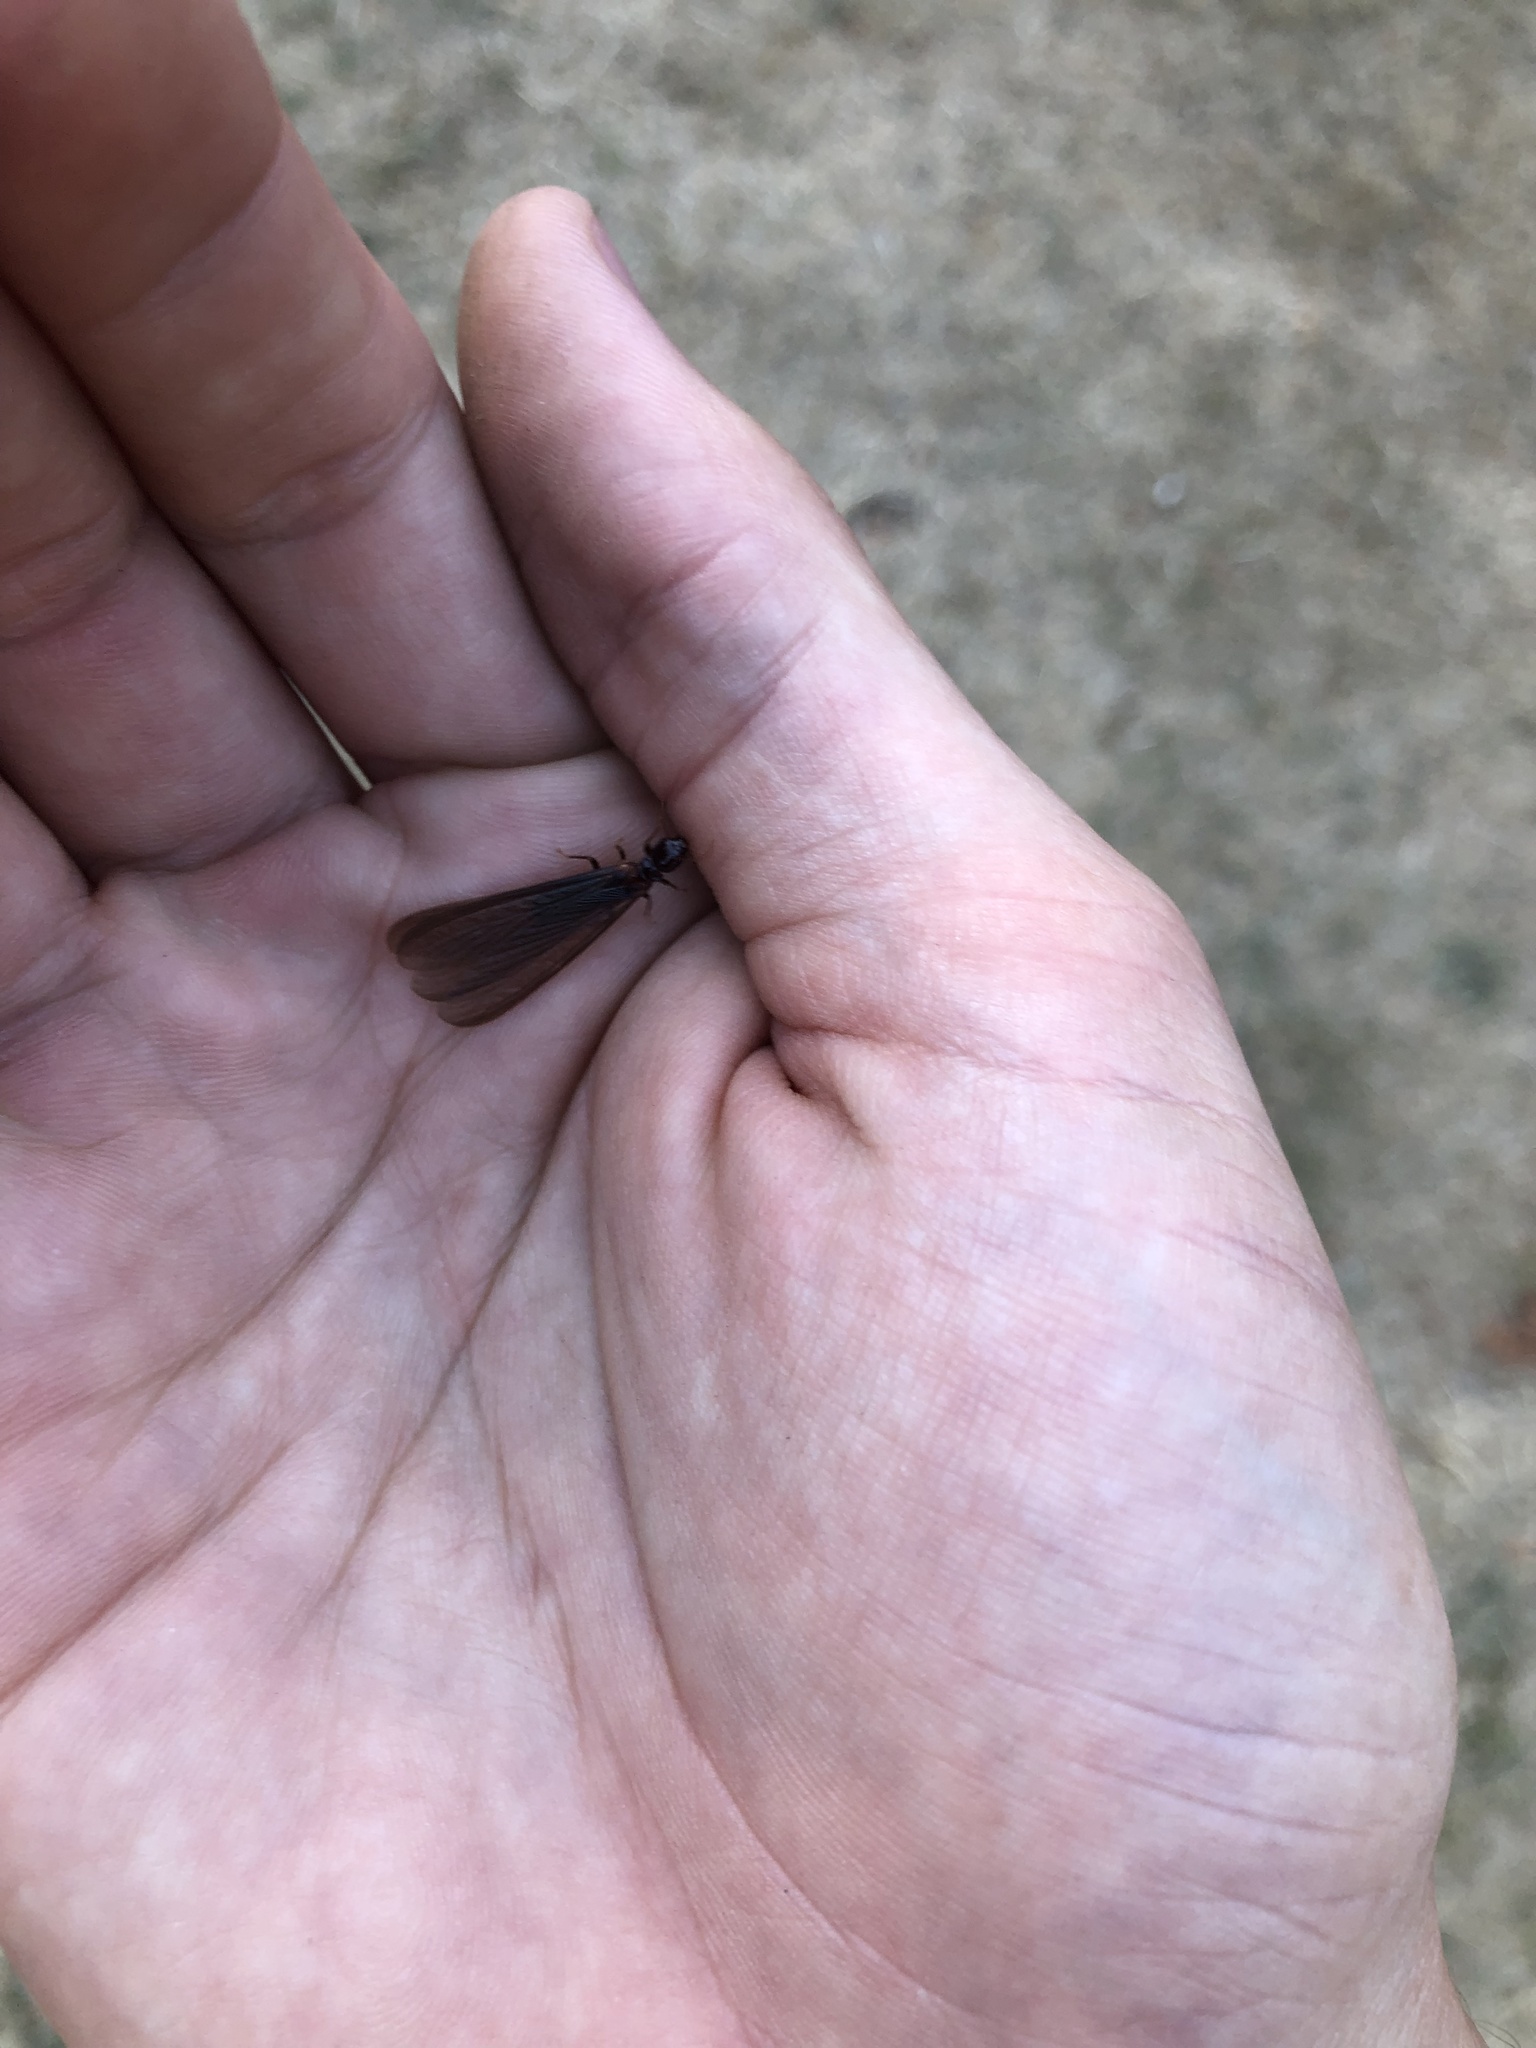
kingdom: Animalia
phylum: Arthropoda
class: Insecta
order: Blattodea
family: Archotermopsidae
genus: Zootermopsis
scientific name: Zootermopsis nevadensis
